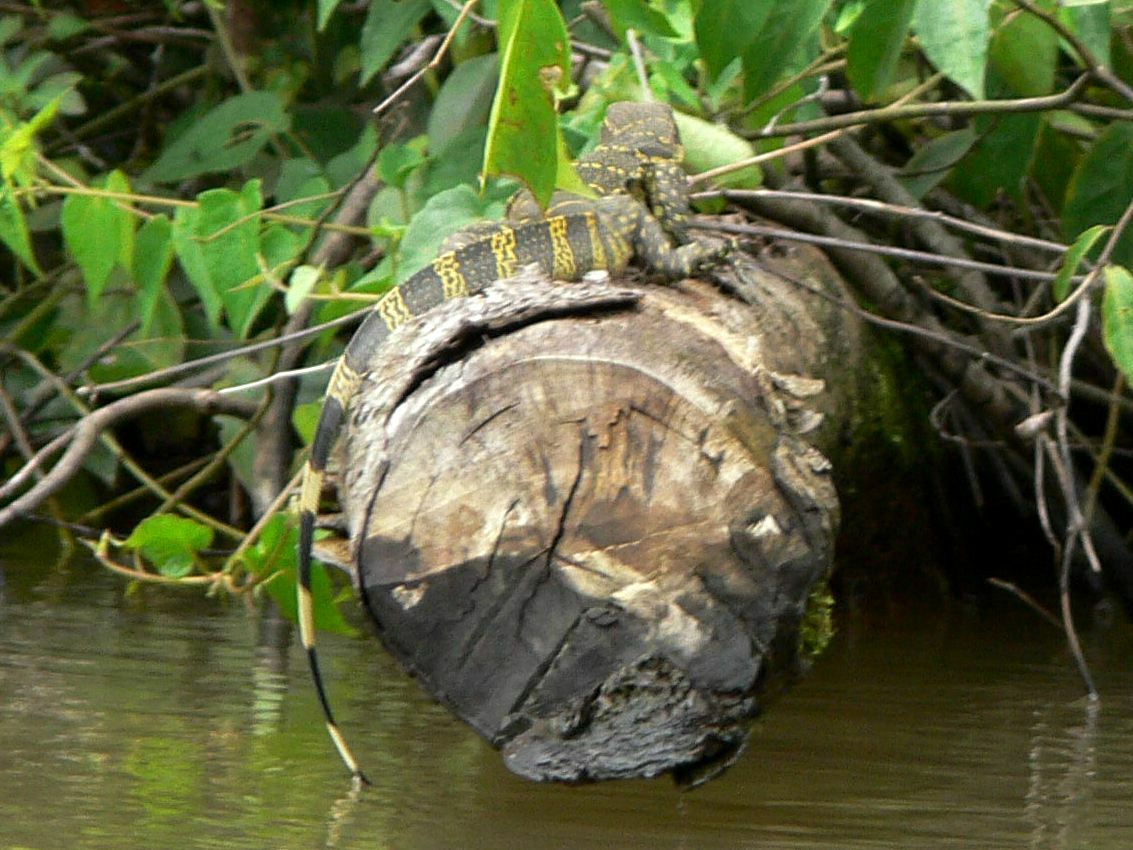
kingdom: Animalia
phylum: Chordata
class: Squamata
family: Varanidae
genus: Varanus
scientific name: Varanus niloticus
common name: Nile monitor
